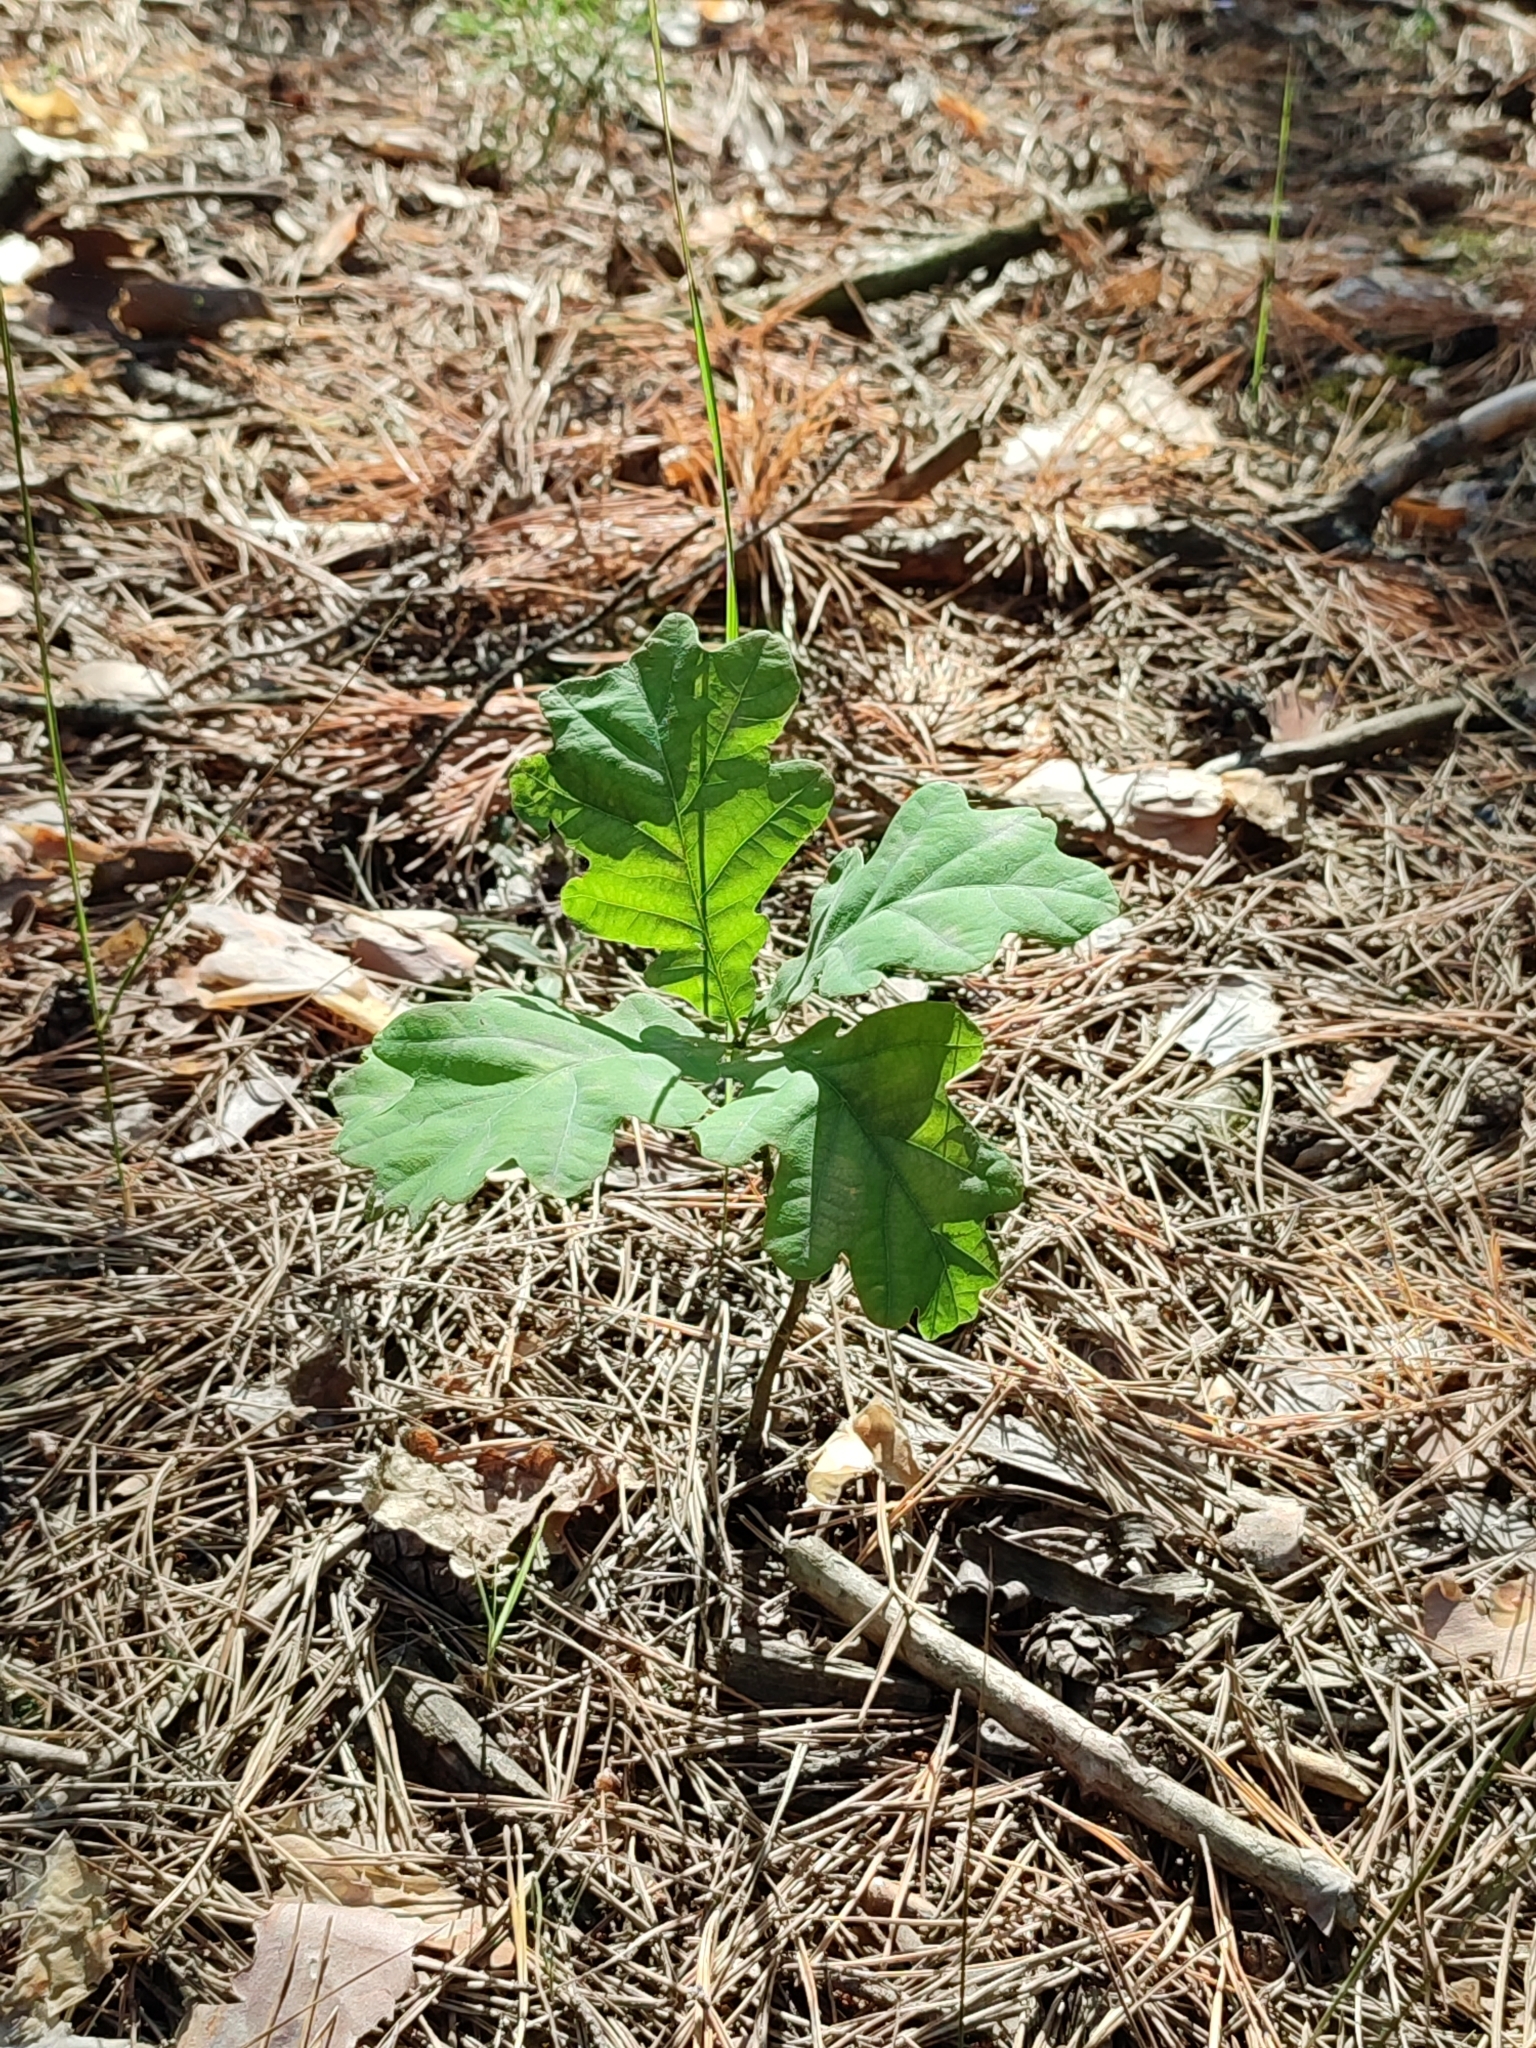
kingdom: Plantae
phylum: Tracheophyta
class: Magnoliopsida
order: Fagales
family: Fagaceae
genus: Quercus
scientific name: Quercus robur
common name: Pedunculate oak
